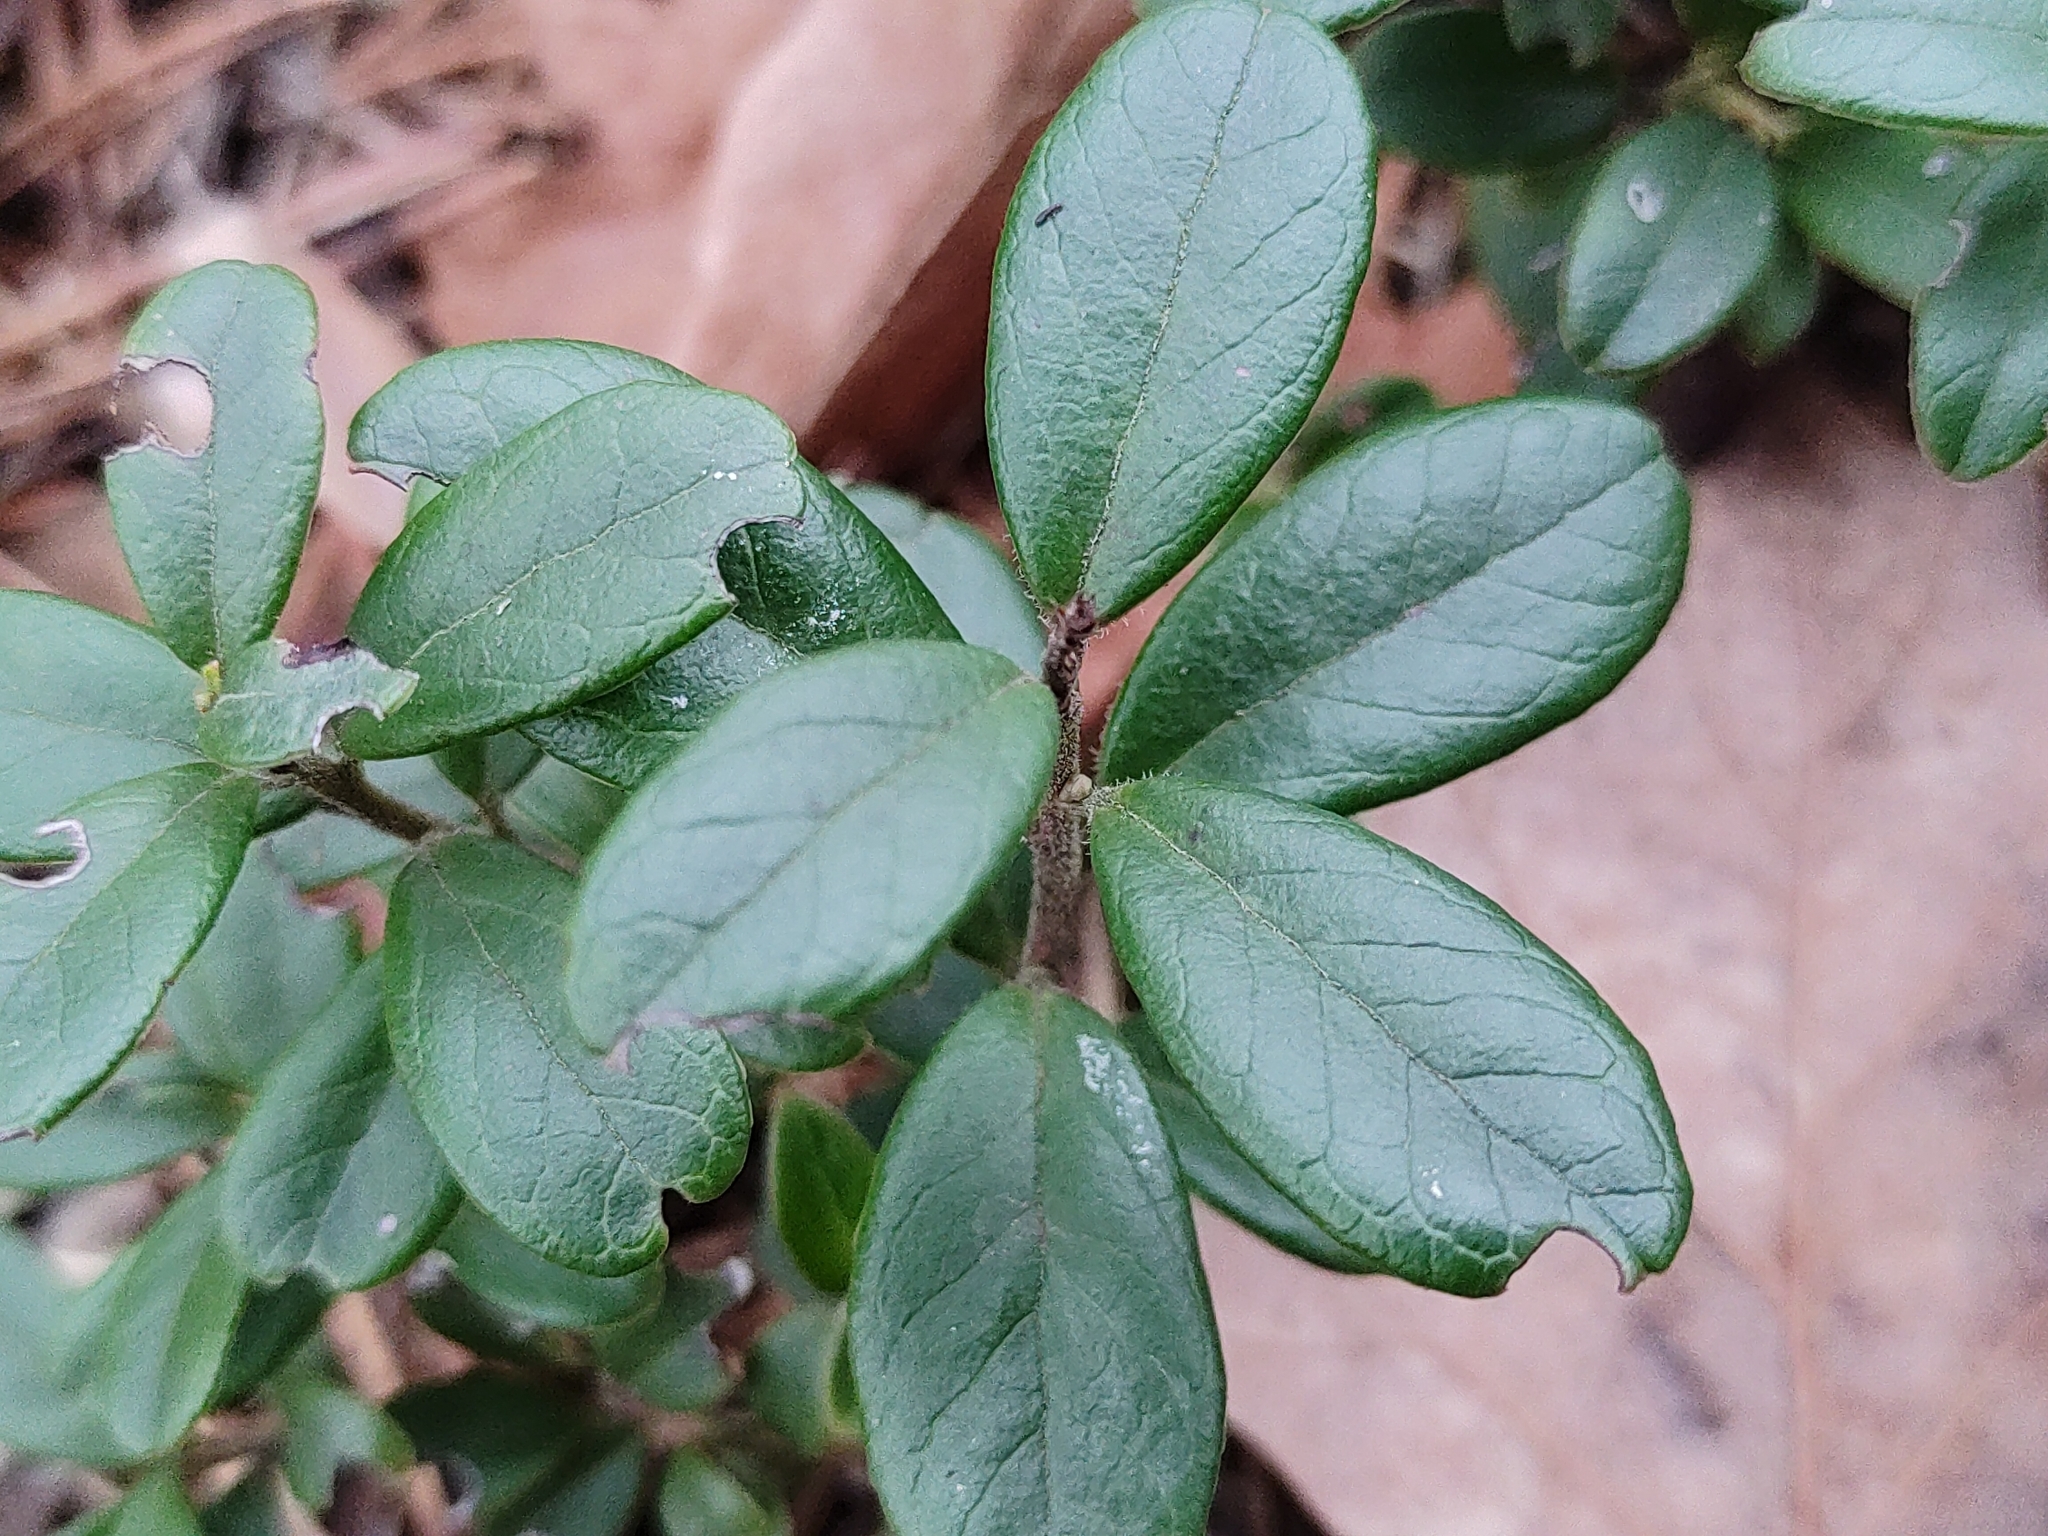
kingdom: Plantae
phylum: Tracheophyta
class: Magnoliopsida
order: Ericales
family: Ericaceae
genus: Vaccinium
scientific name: Vaccinium vitis-idaea
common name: Cowberry
